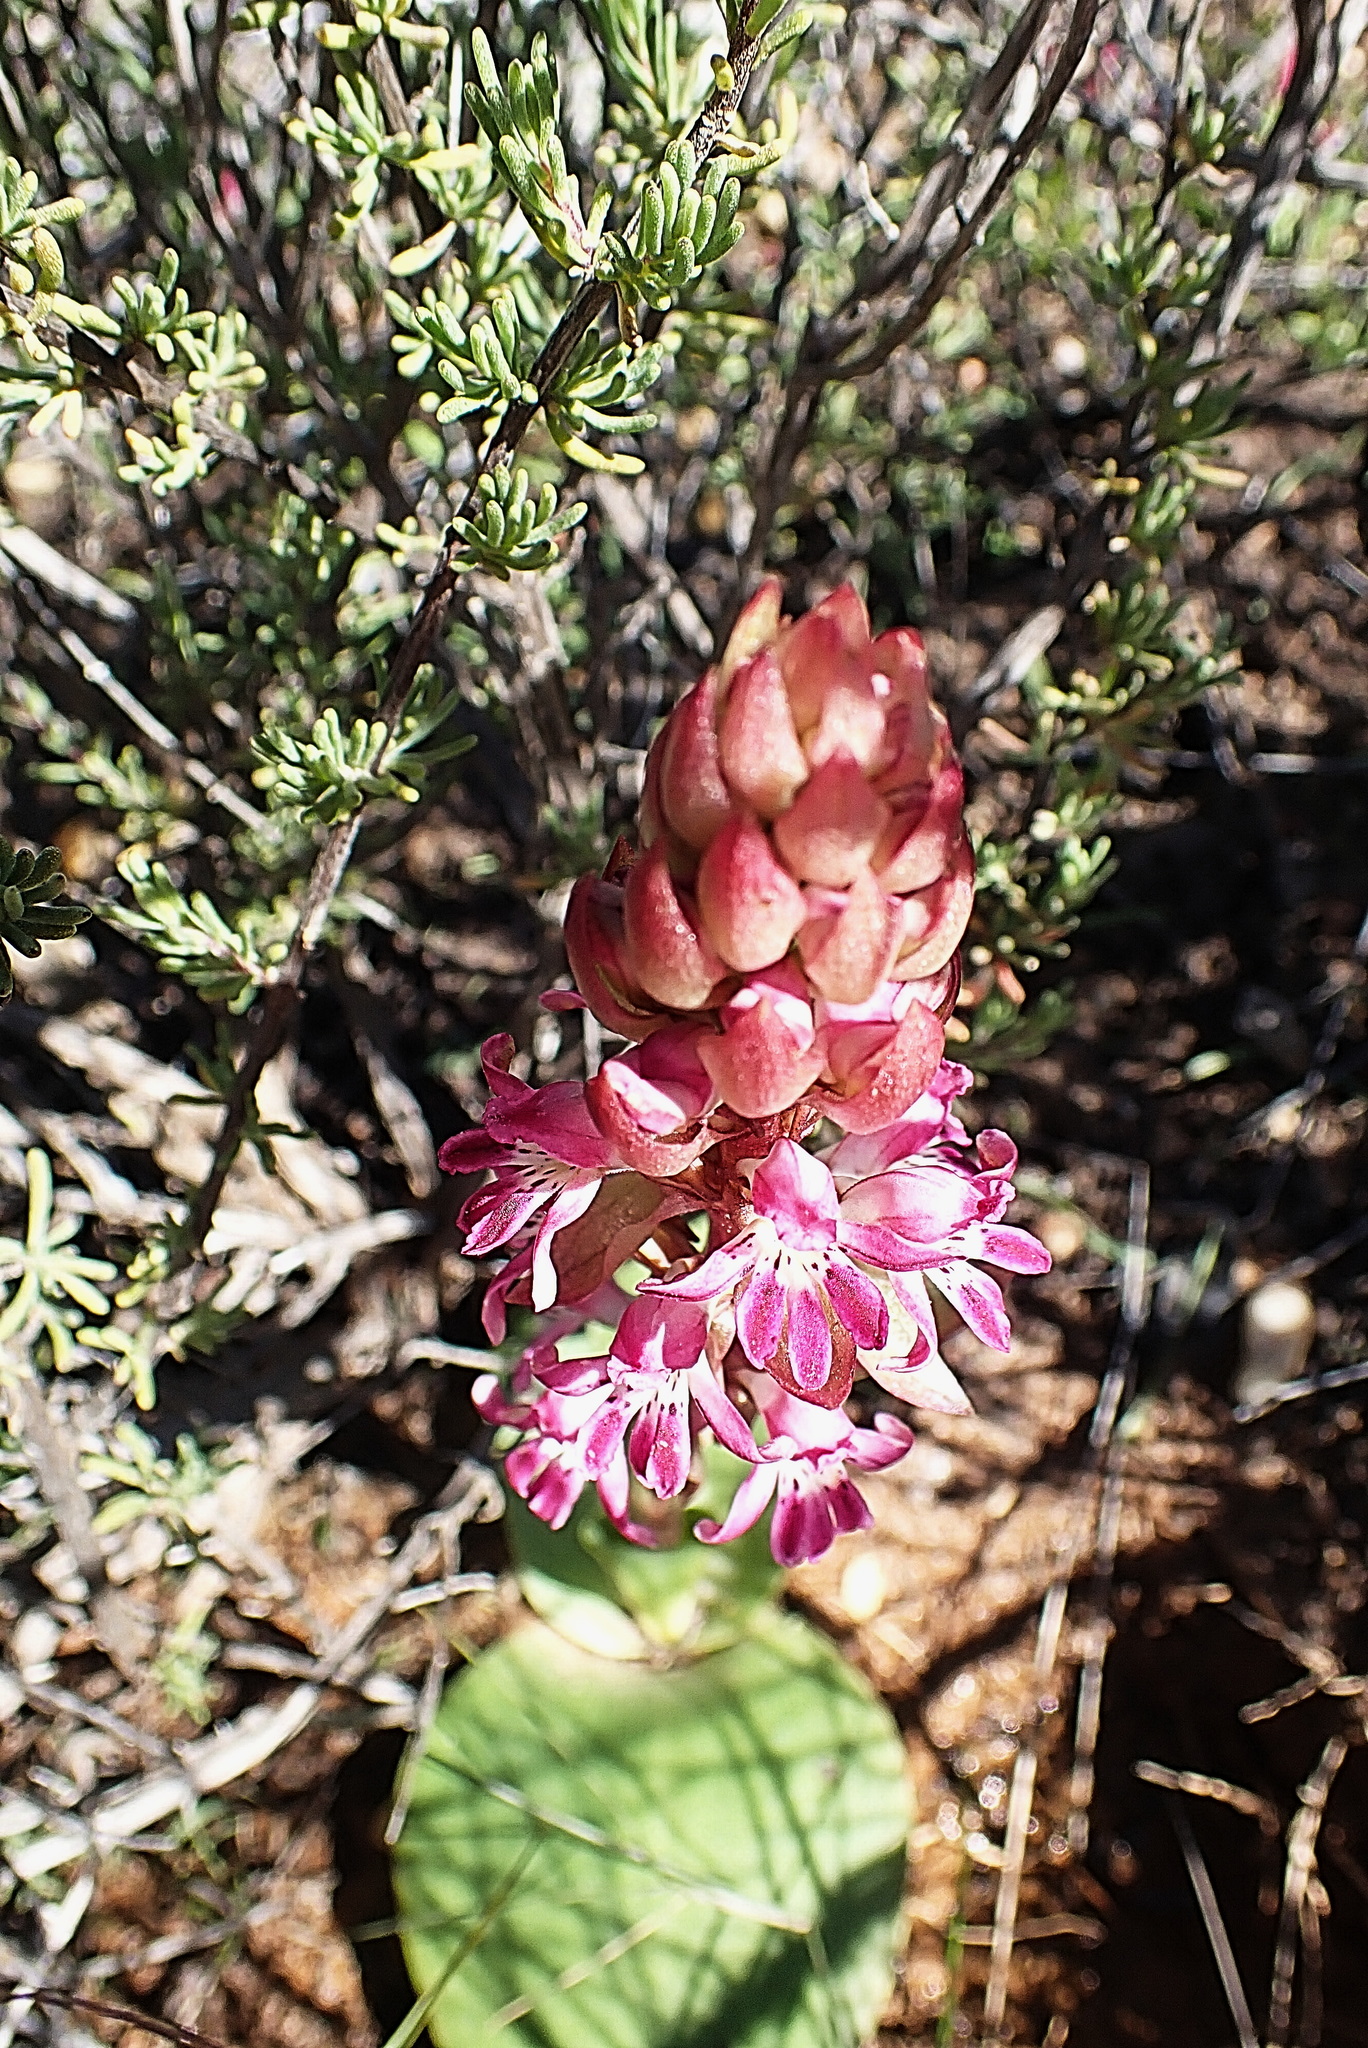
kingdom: Plantae
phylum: Tracheophyta
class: Liliopsida
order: Asparagales
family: Orchidaceae
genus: Satyrium
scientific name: Satyrium erectum
